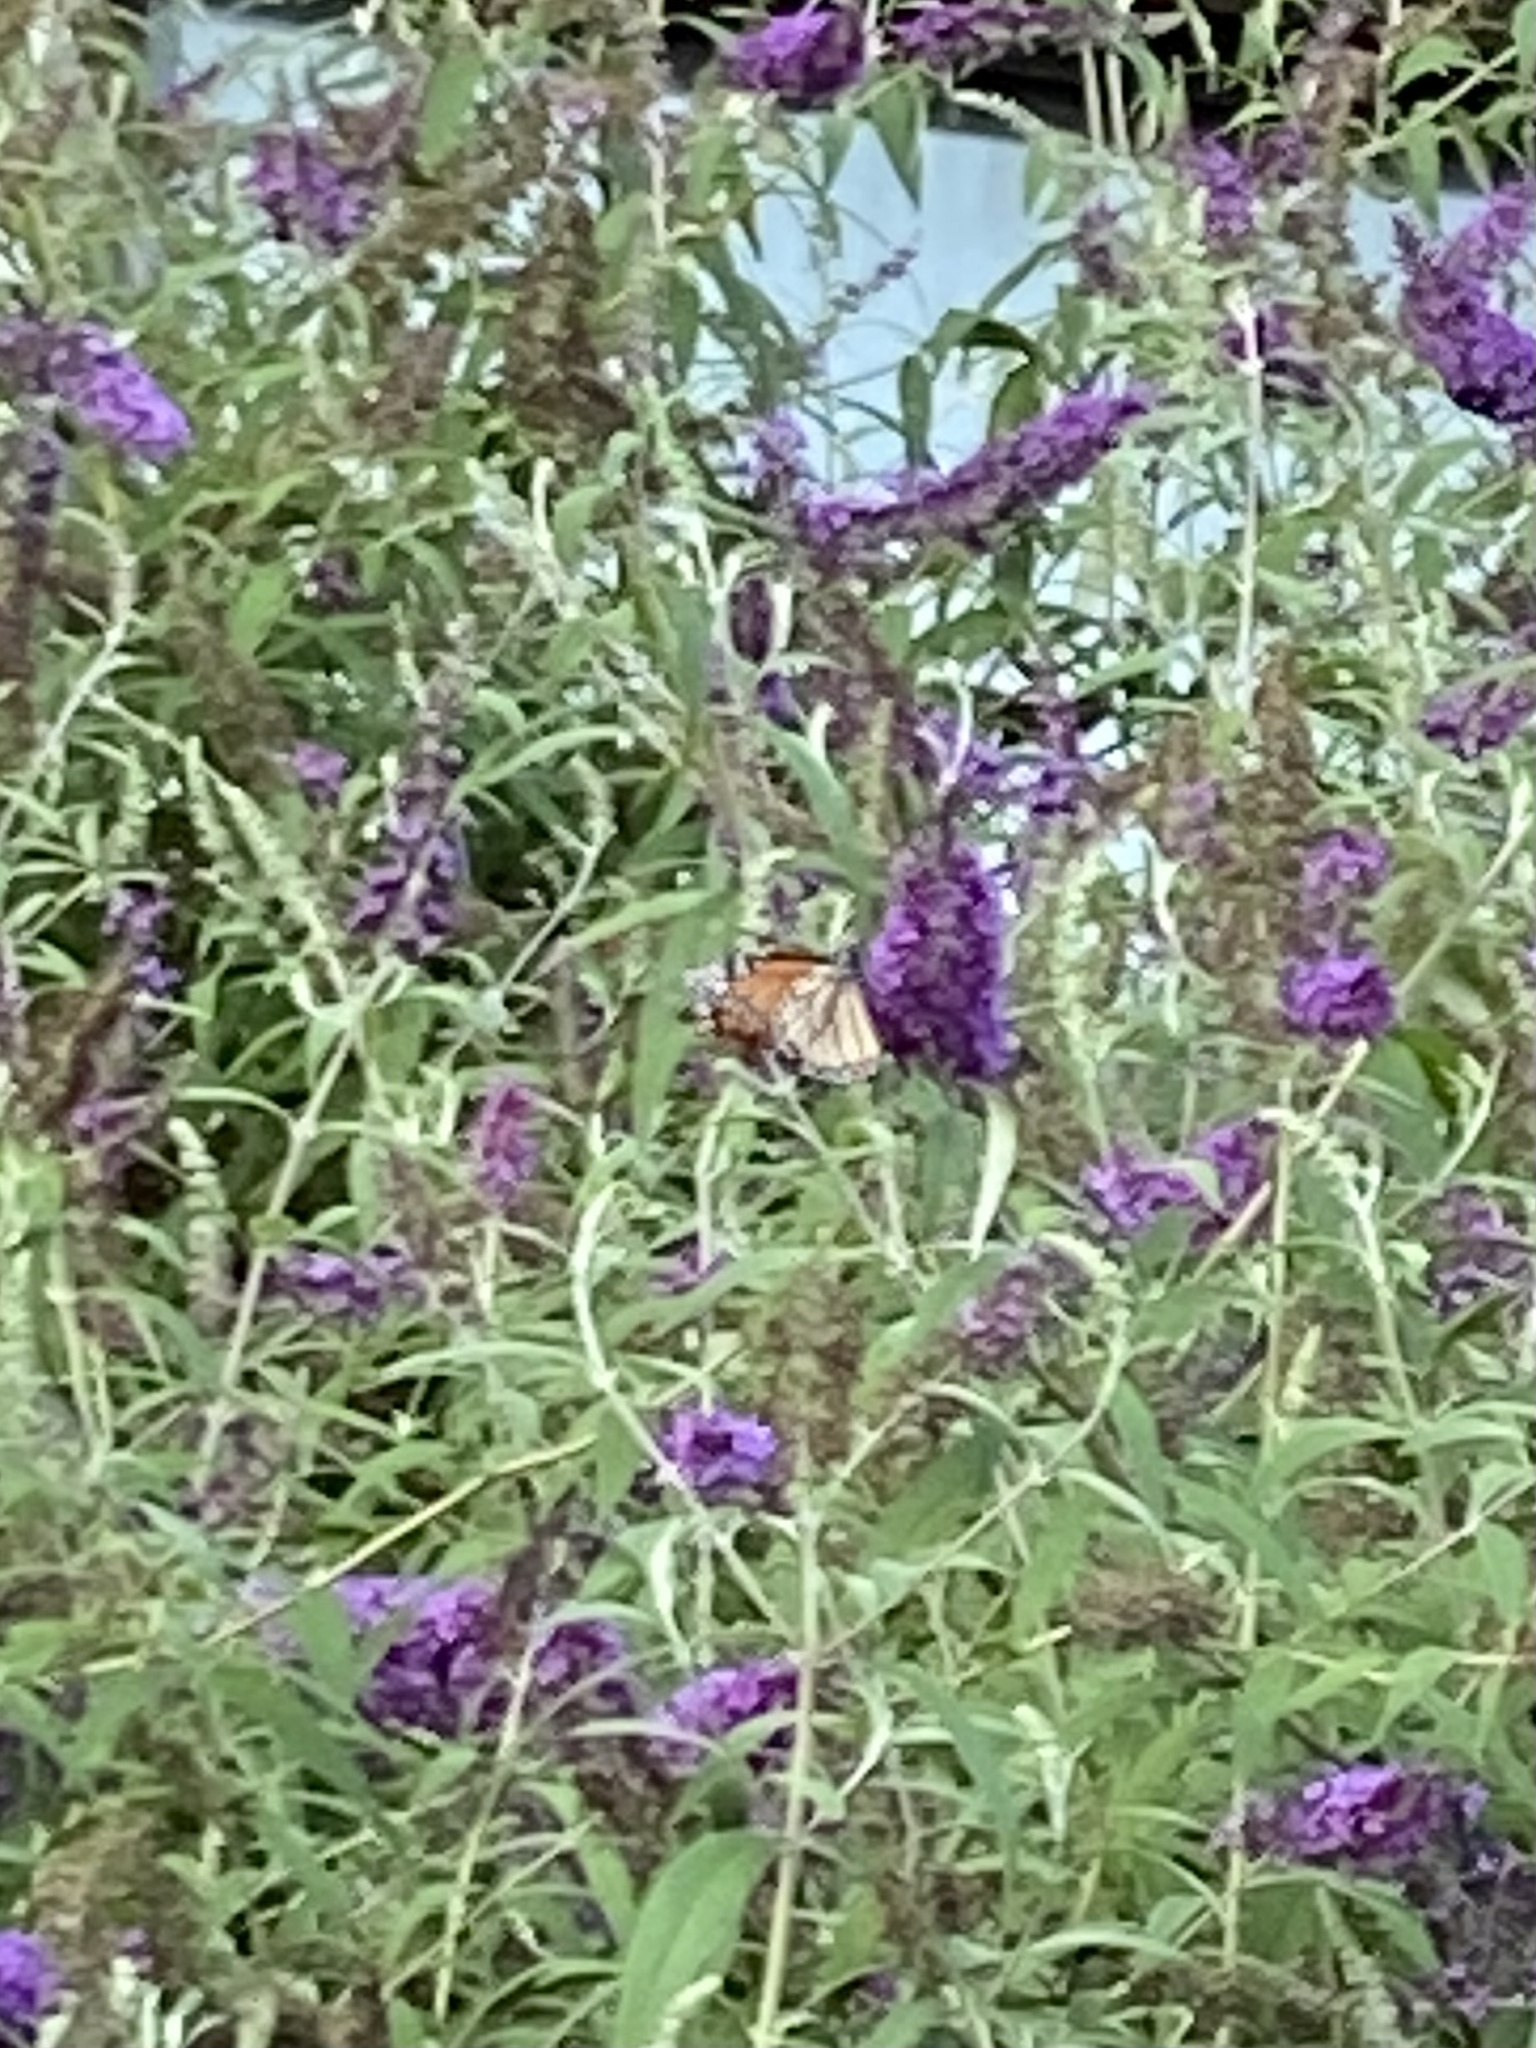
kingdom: Animalia
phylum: Arthropoda
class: Insecta
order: Lepidoptera
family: Nymphalidae
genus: Danaus
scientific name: Danaus plexippus
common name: Monarch
